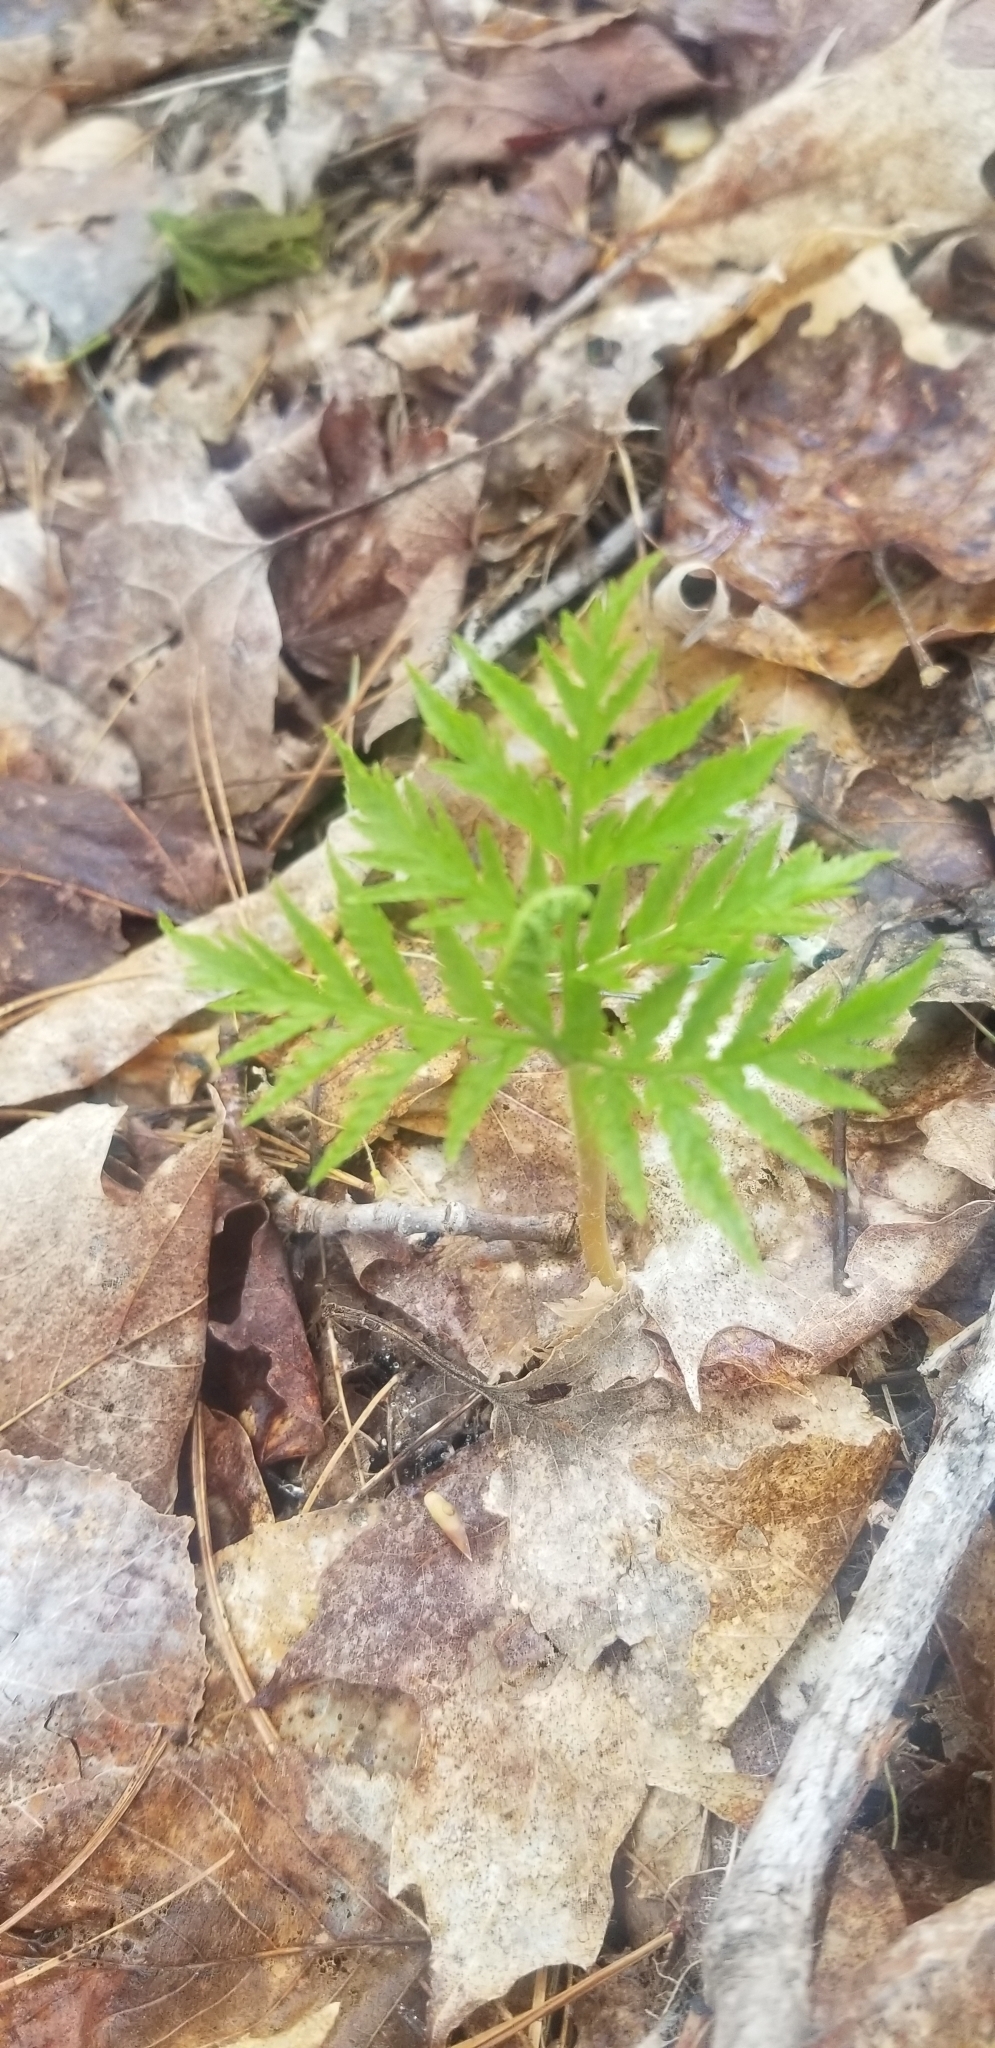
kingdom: Plantae
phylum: Tracheophyta
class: Polypodiopsida
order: Ophioglossales
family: Ophioglossaceae
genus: Botrypus
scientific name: Botrypus virginianus
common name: Common grapefern
